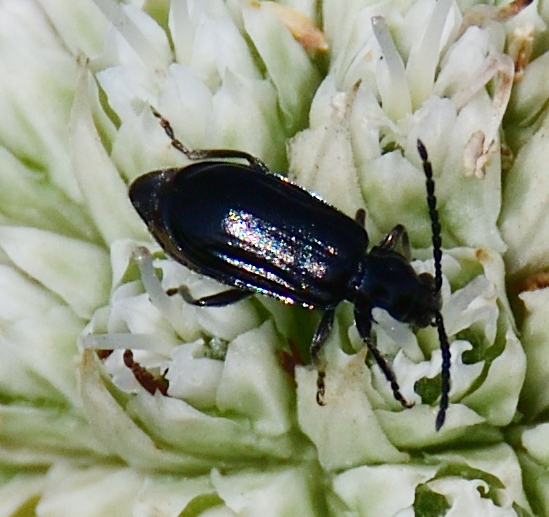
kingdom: Animalia
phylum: Arthropoda
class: Insecta
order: Coleoptera
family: Chrysomelidae
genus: Diabrotica
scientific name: Diabrotica cristata
